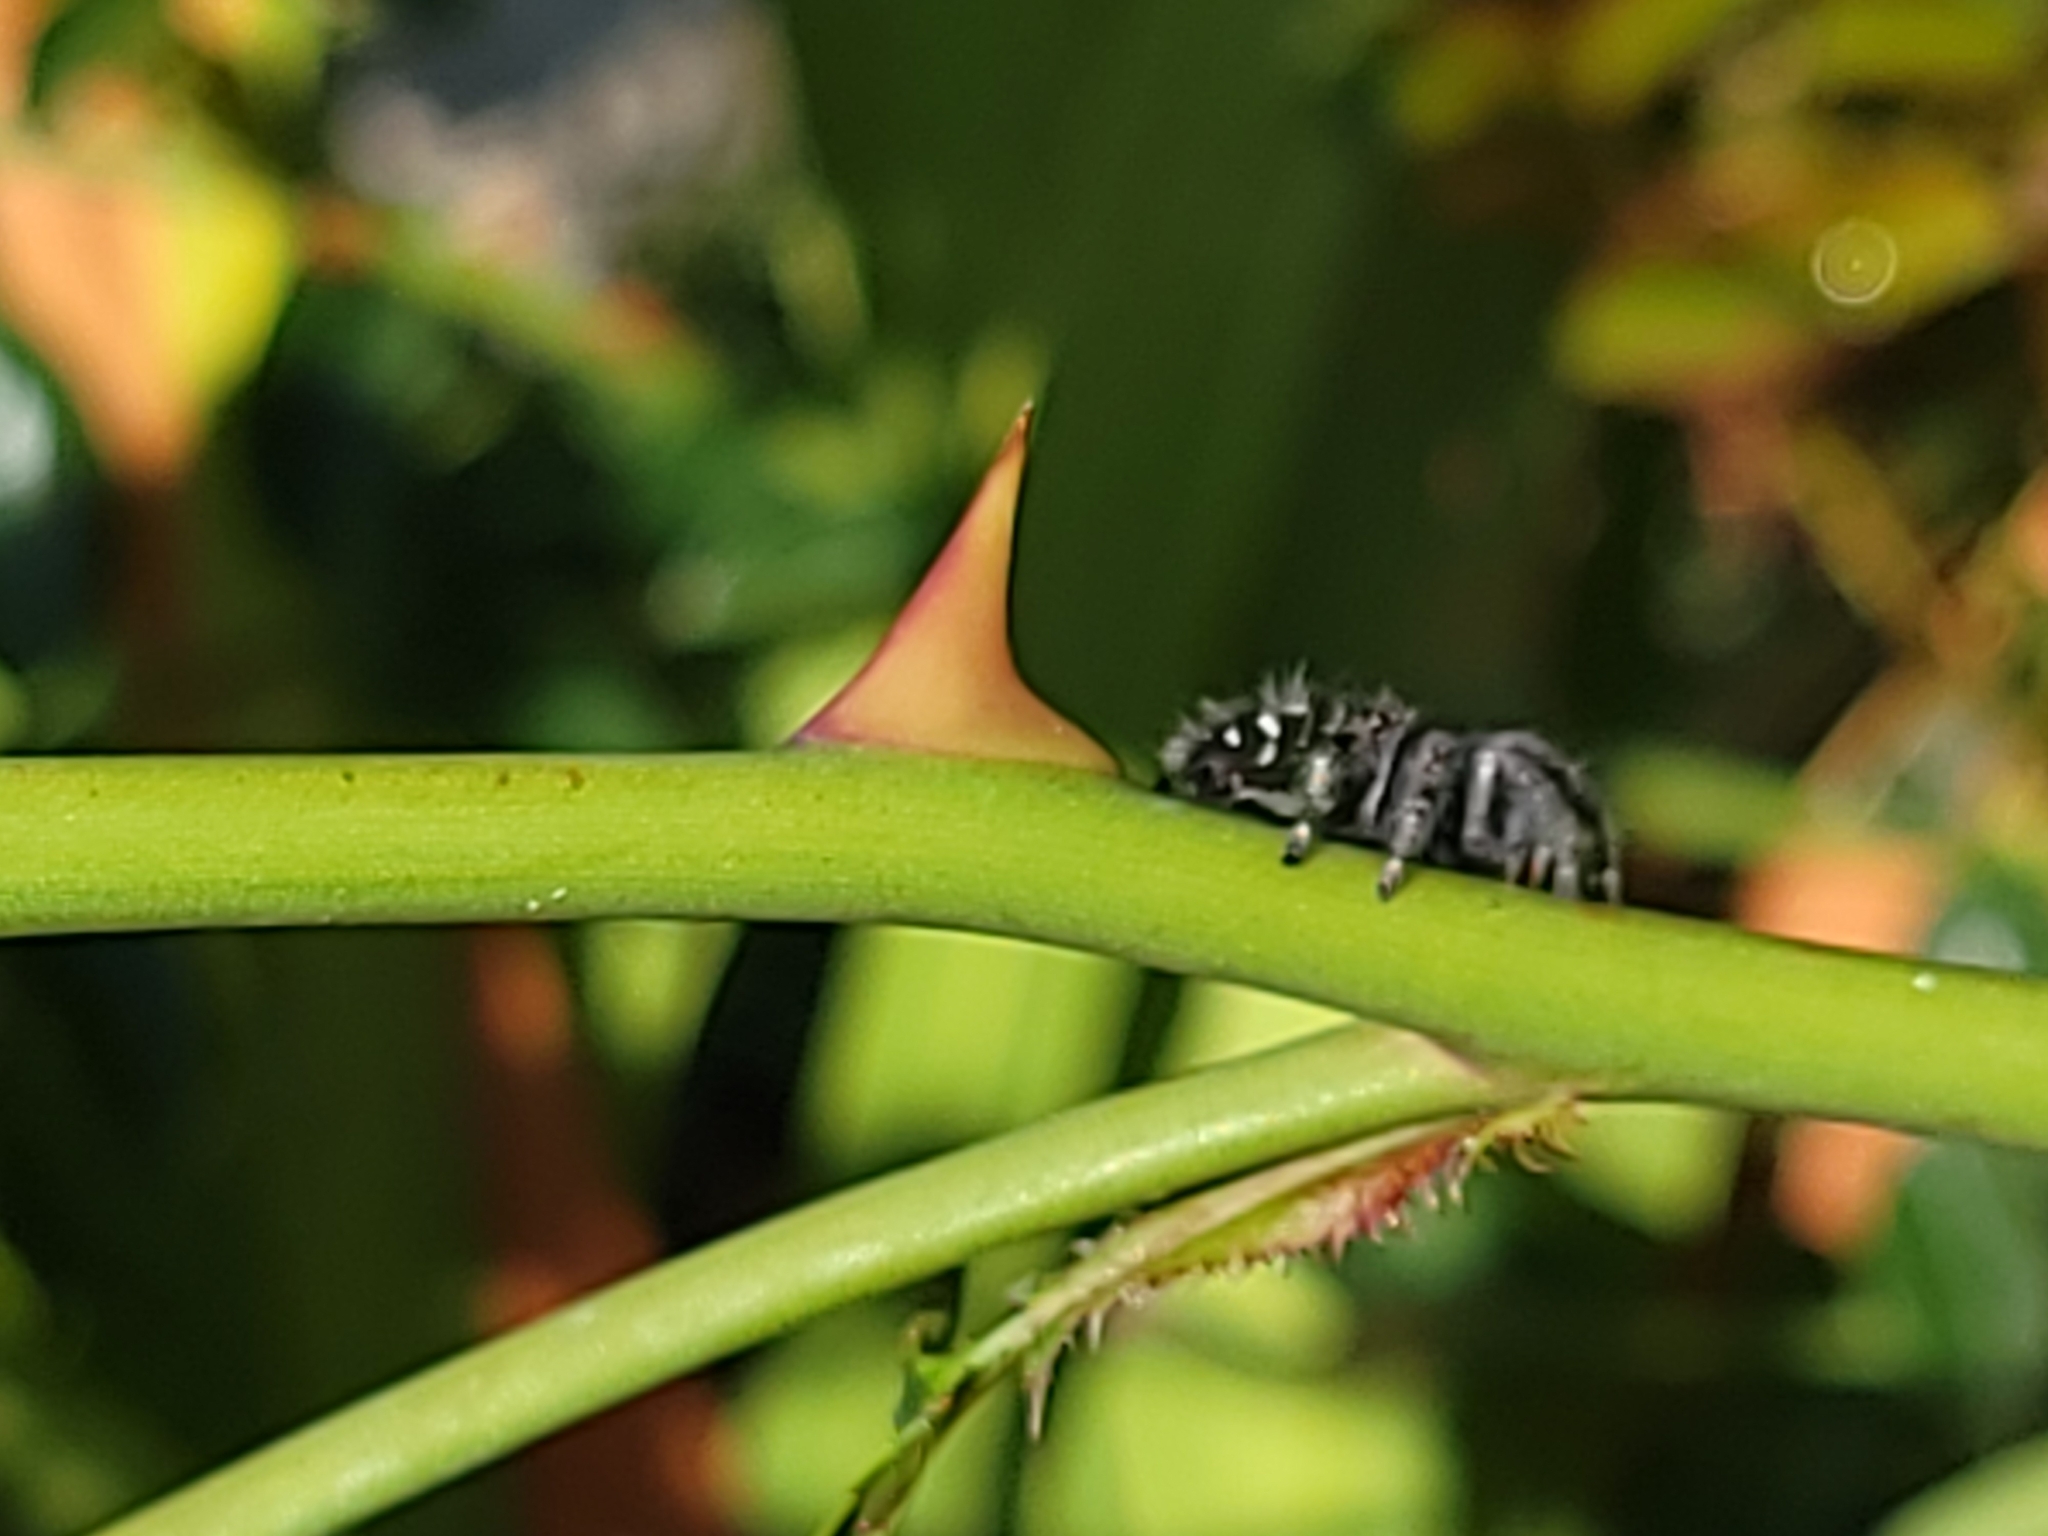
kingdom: Animalia
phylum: Arthropoda
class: Arachnida
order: Araneae
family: Salticidae
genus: Phidippus
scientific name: Phidippus audax
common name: Bold jumper
